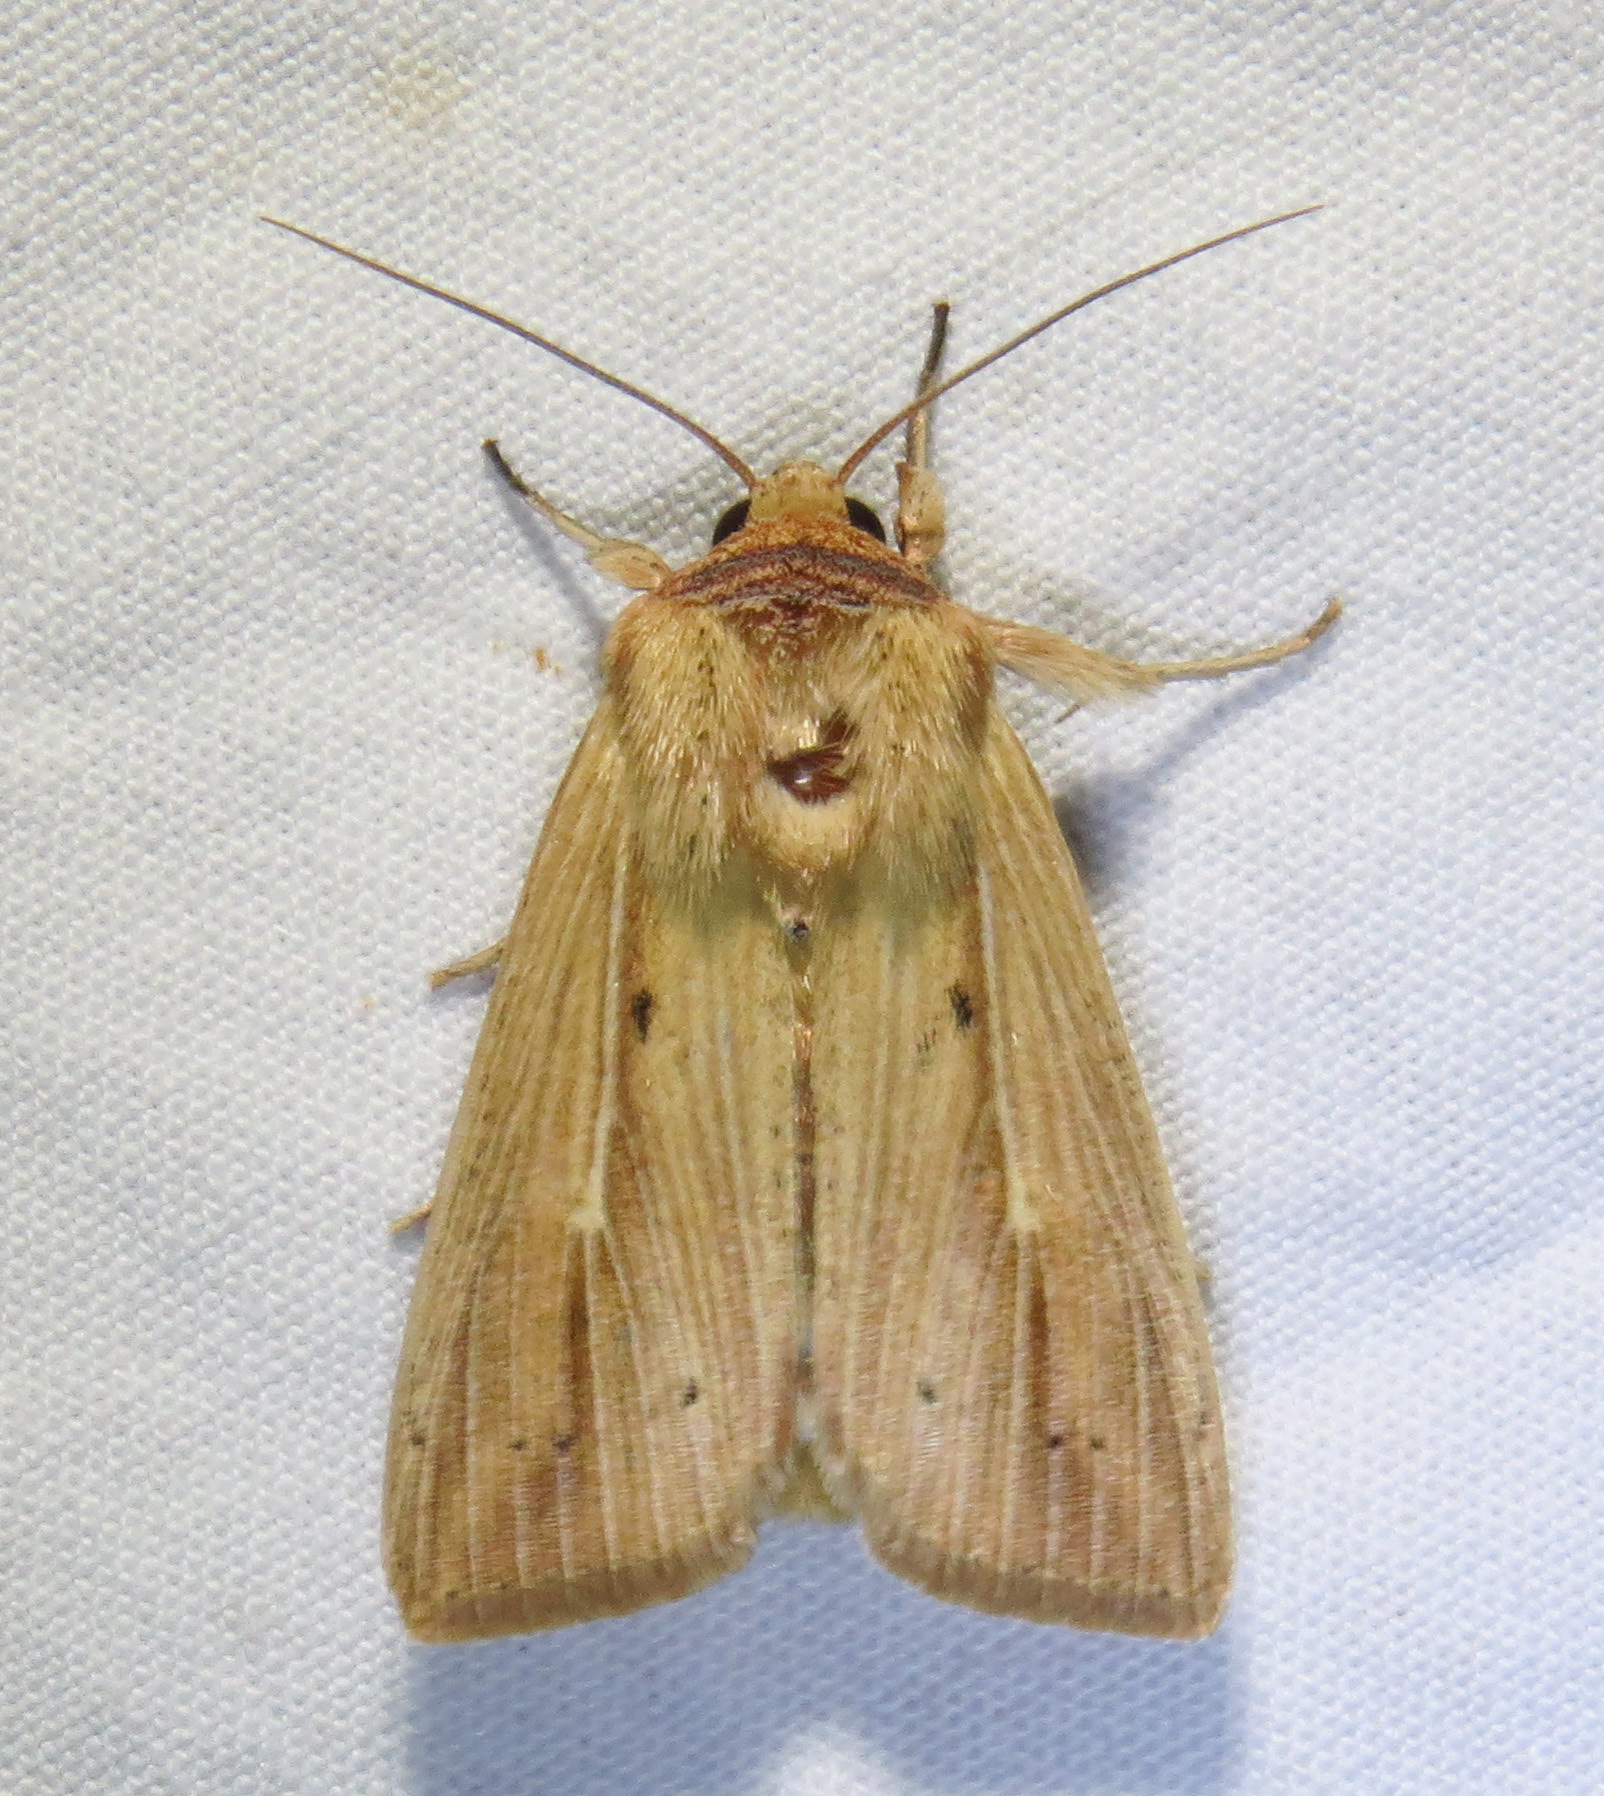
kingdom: Animalia
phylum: Arthropoda
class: Insecta
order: Lepidoptera
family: Noctuidae
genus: Leucania
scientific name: Leucania adjuta
